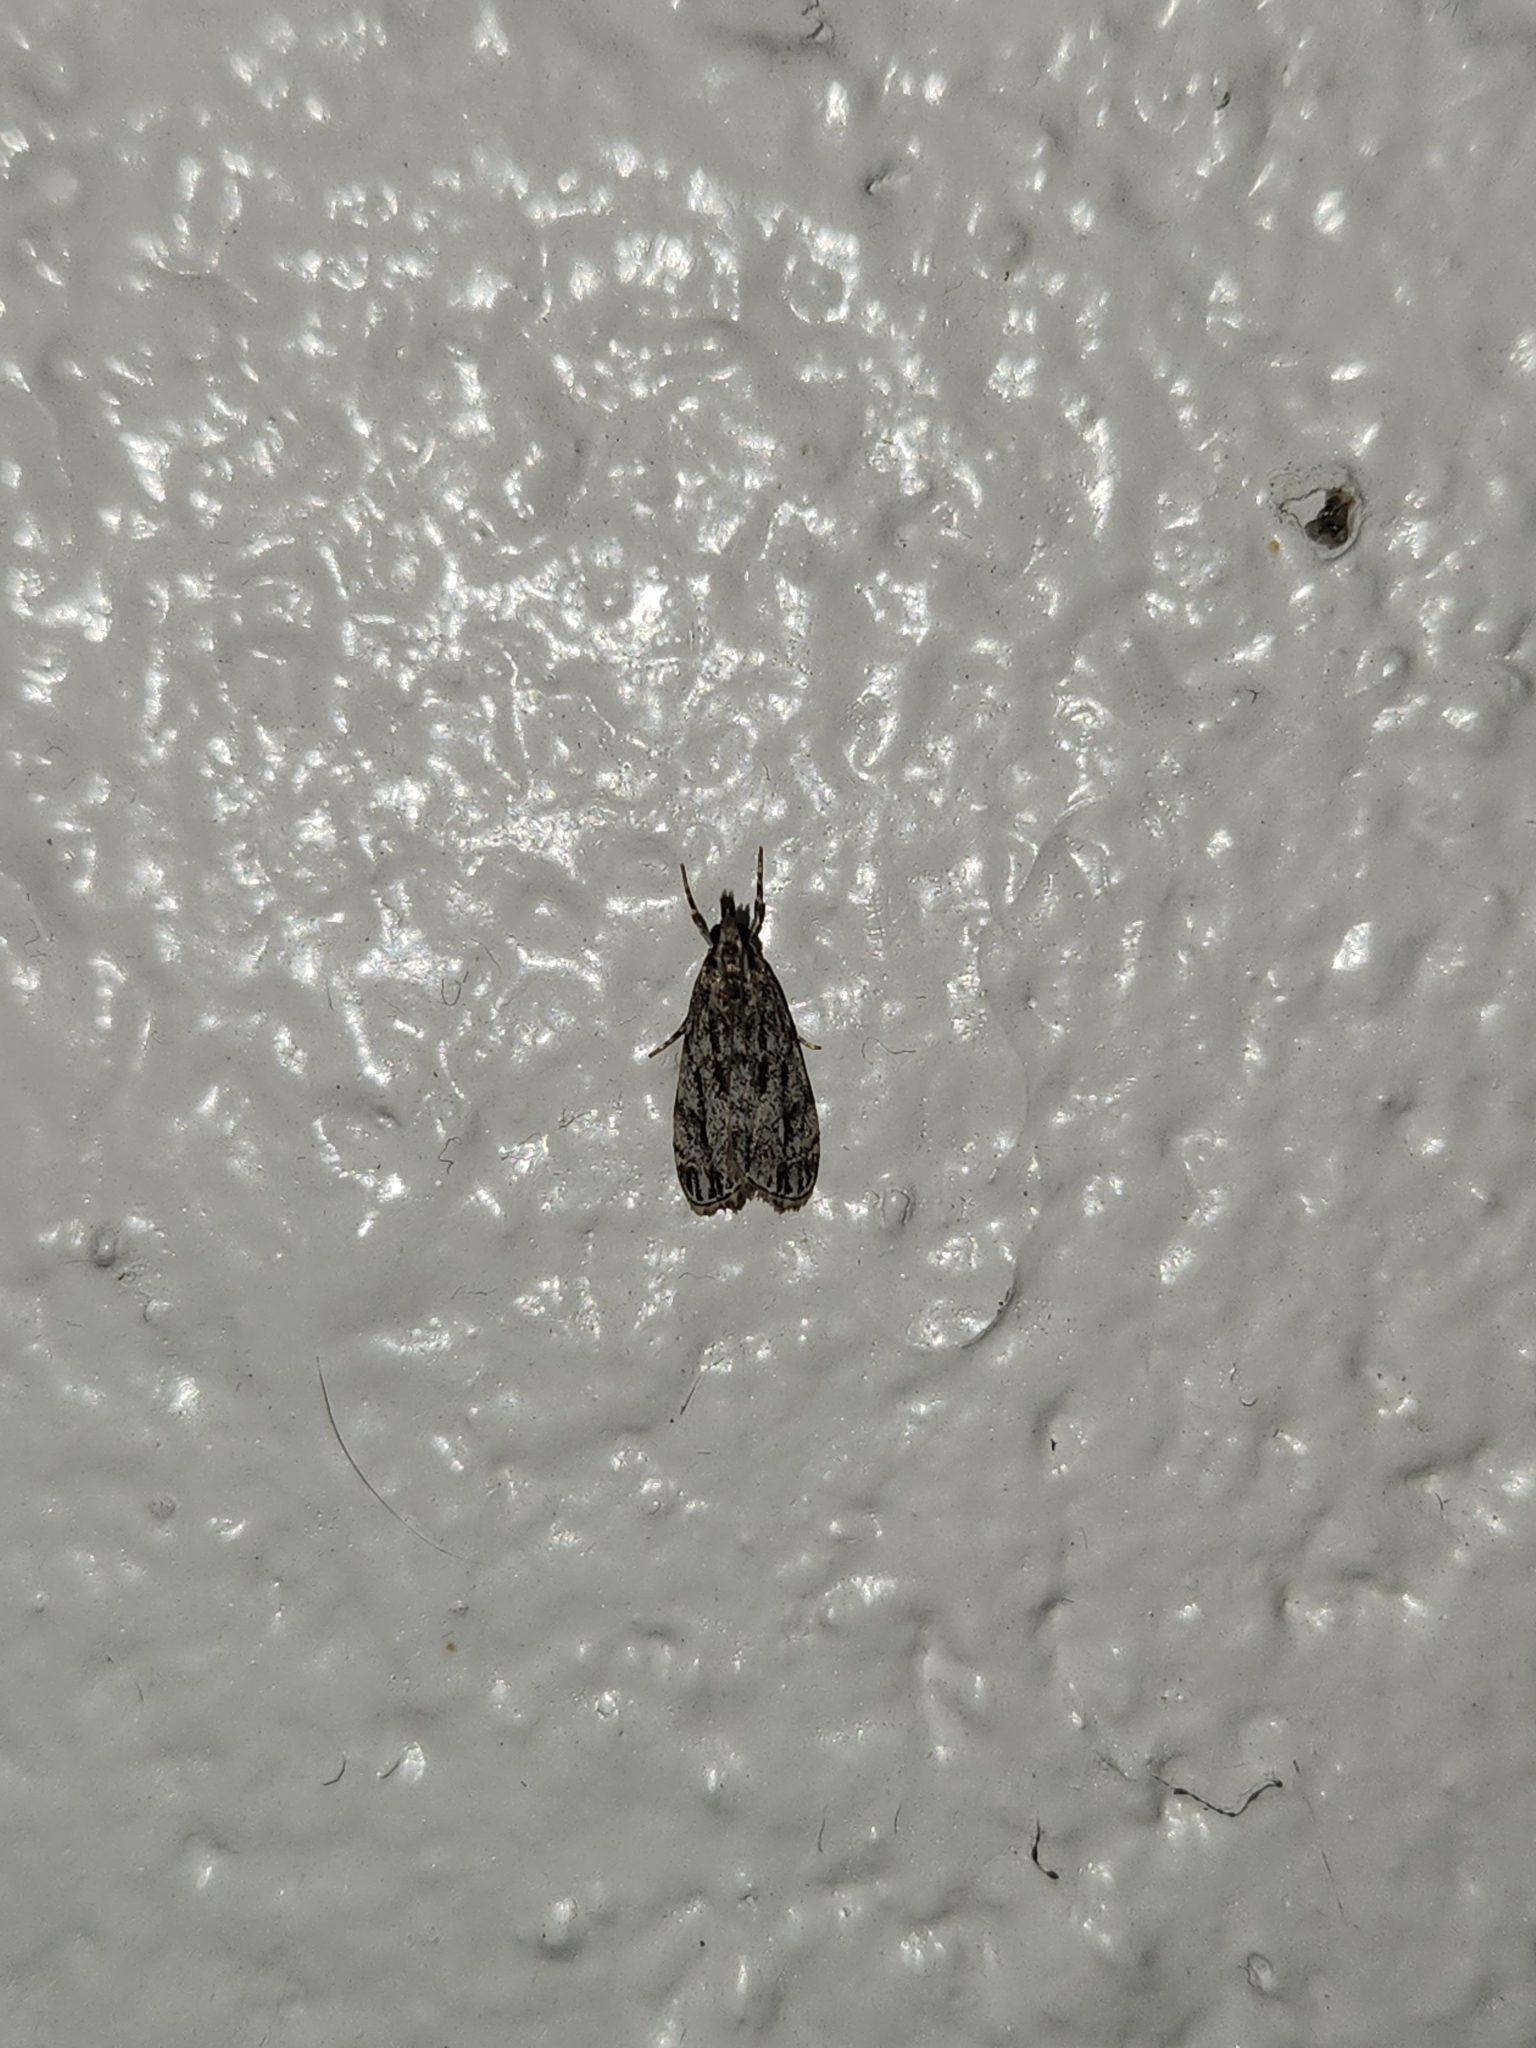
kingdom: Animalia
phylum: Arthropoda
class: Insecta
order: Lepidoptera
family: Crambidae
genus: Eudonia
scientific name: Eudonia strigalis
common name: Striped eudonia moth
